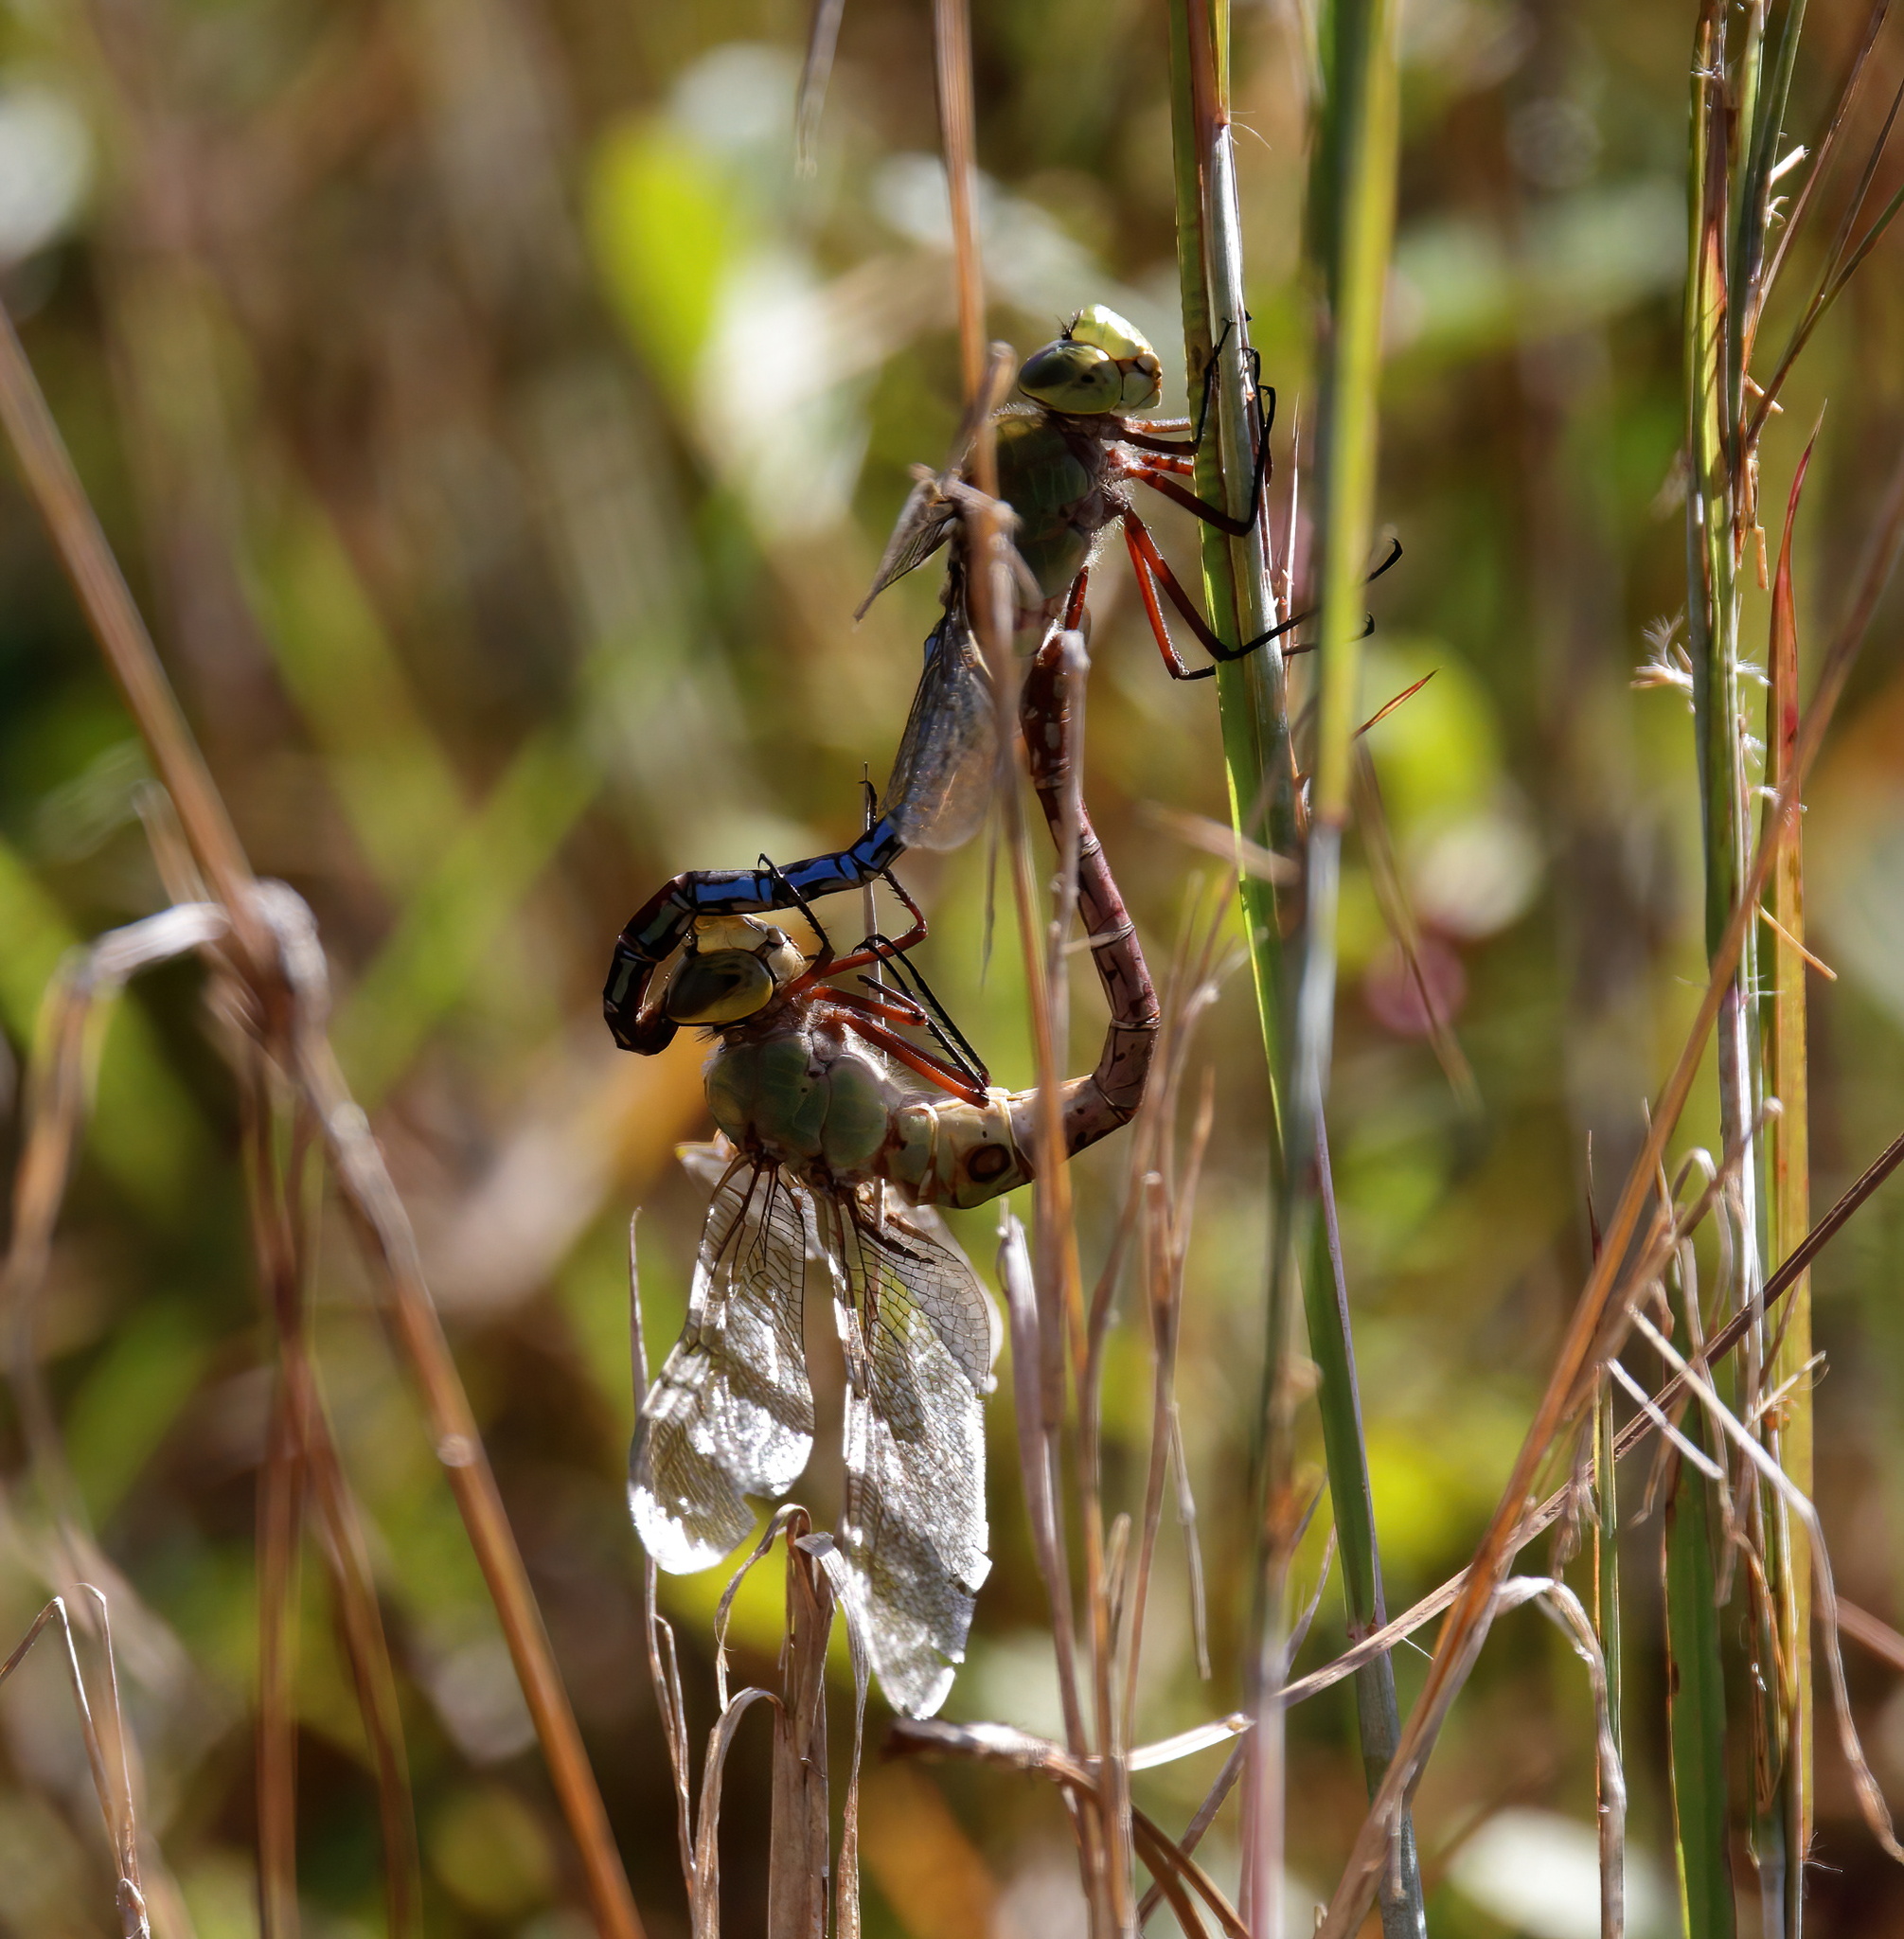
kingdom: Animalia
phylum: Arthropoda
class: Insecta
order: Odonata
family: Aeshnidae
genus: Anax
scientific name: Anax junius
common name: Common green darner
